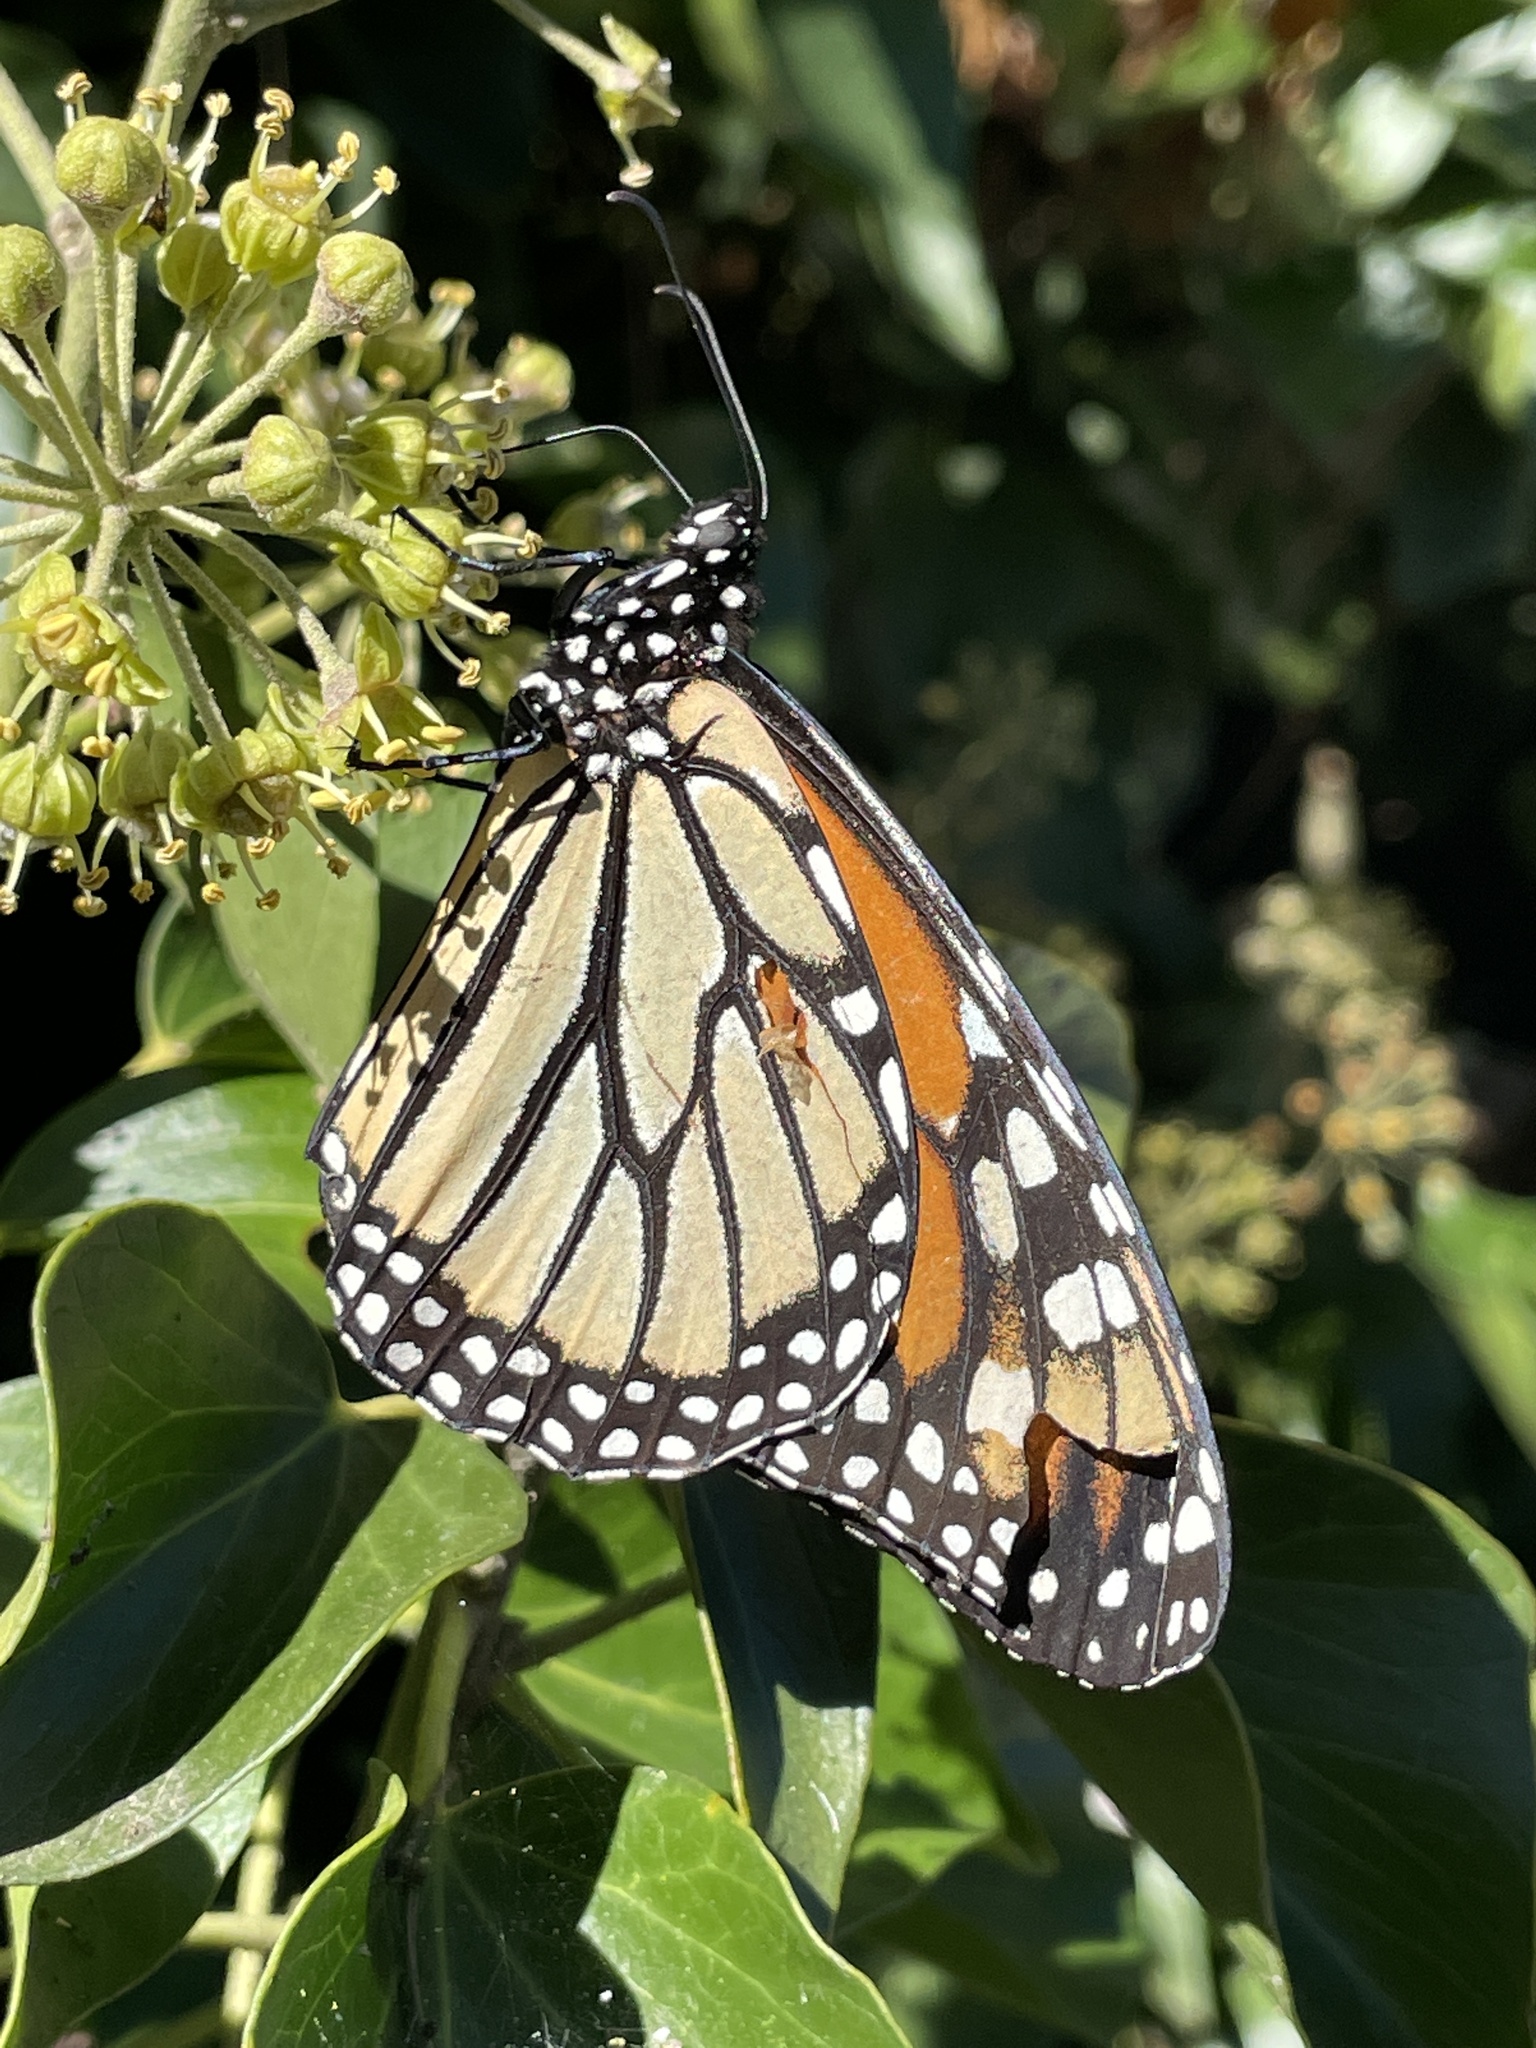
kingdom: Animalia
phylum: Arthropoda
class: Insecta
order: Lepidoptera
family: Nymphalidae
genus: Danaus
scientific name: Danaus plexippus
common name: Monarch
